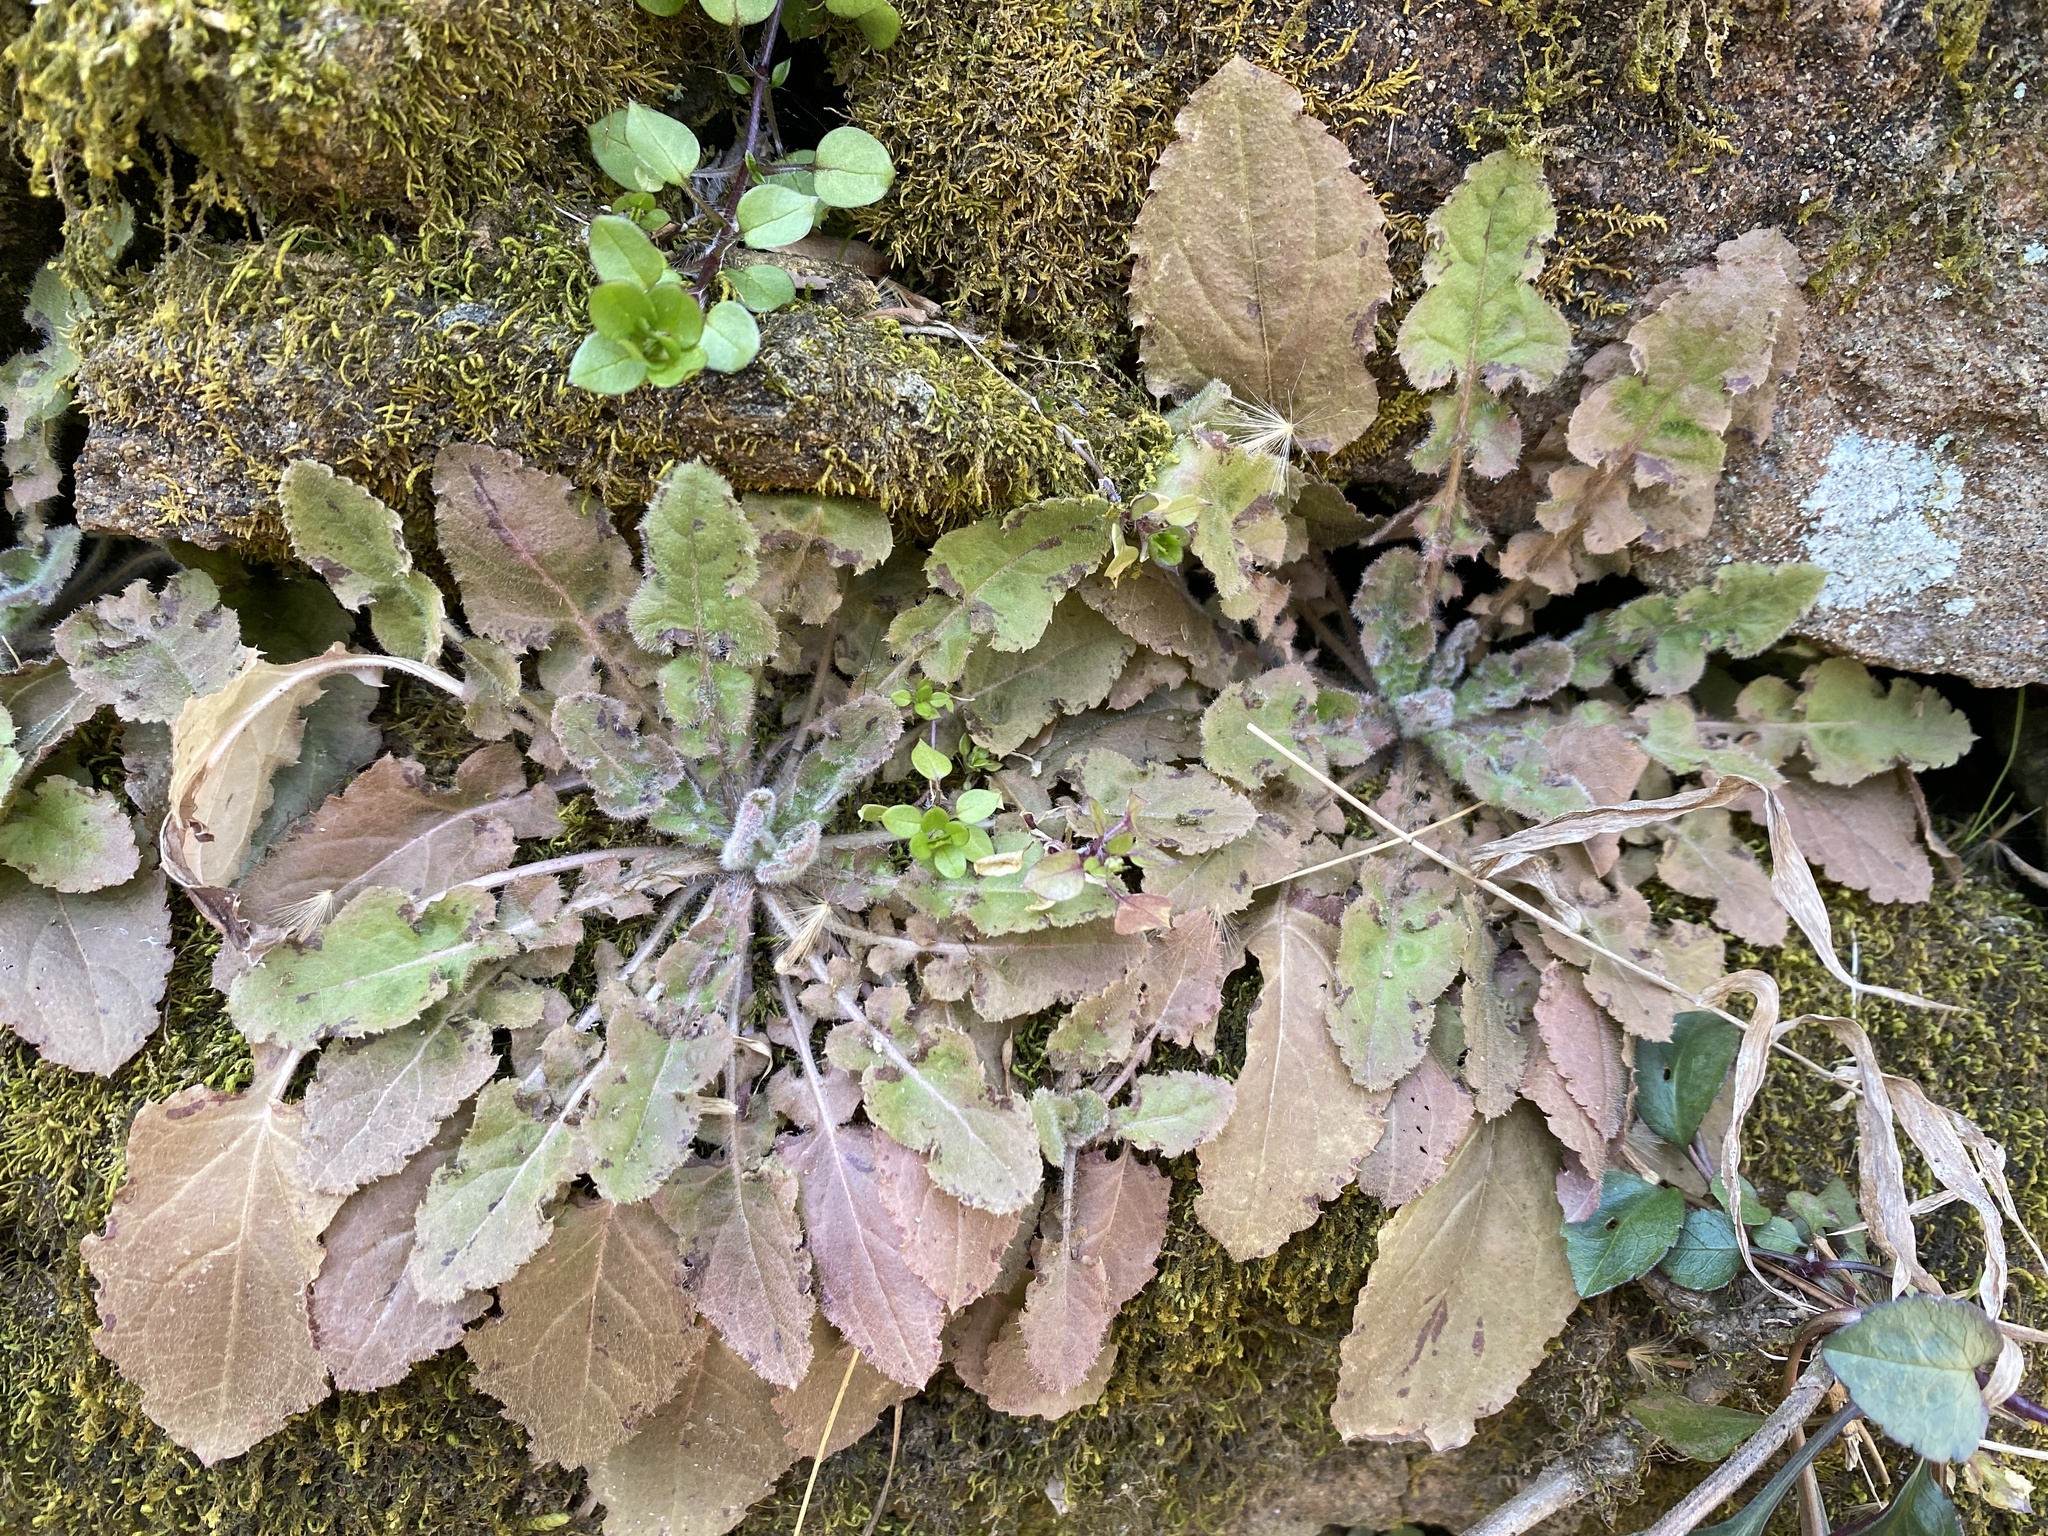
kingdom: Plantae
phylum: Tracheophyta
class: Magnoliopsida
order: Asterales
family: Asteraceae
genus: Youngia
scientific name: Youngia japonica
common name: Oriental false hawksbeard
